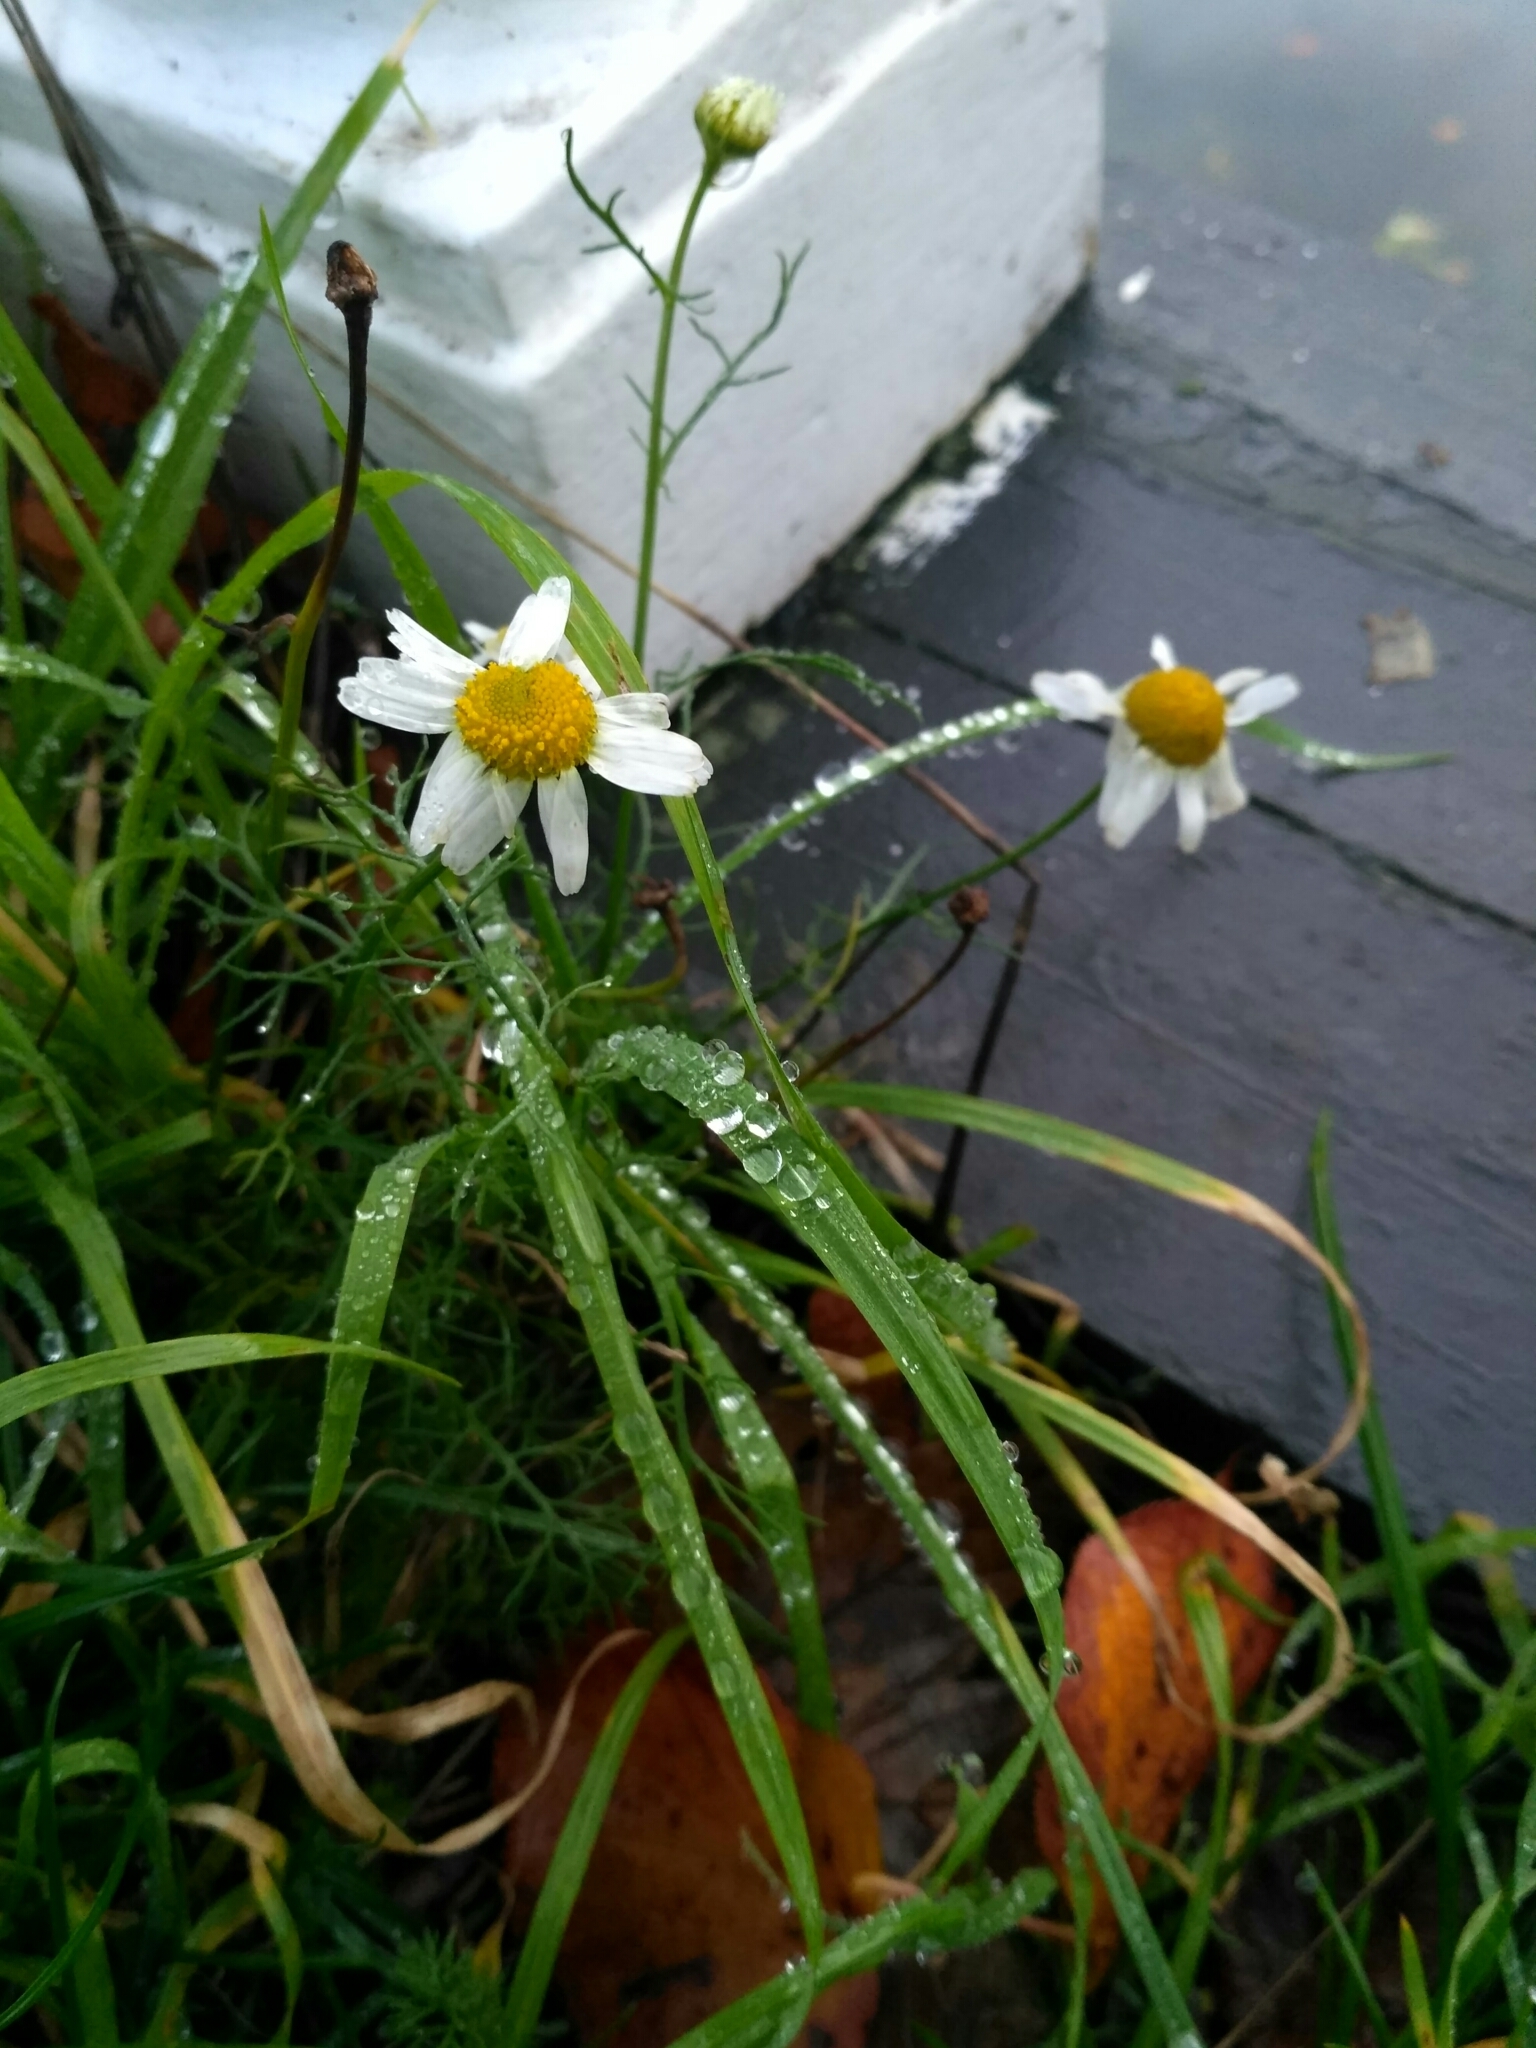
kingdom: Plantae
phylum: Tracheophyta
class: Magnoliopsida
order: Asterales
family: Asteraceae
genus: Tripleurospermum
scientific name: Tripleurospermum inodorum
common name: Scentless mayweed
